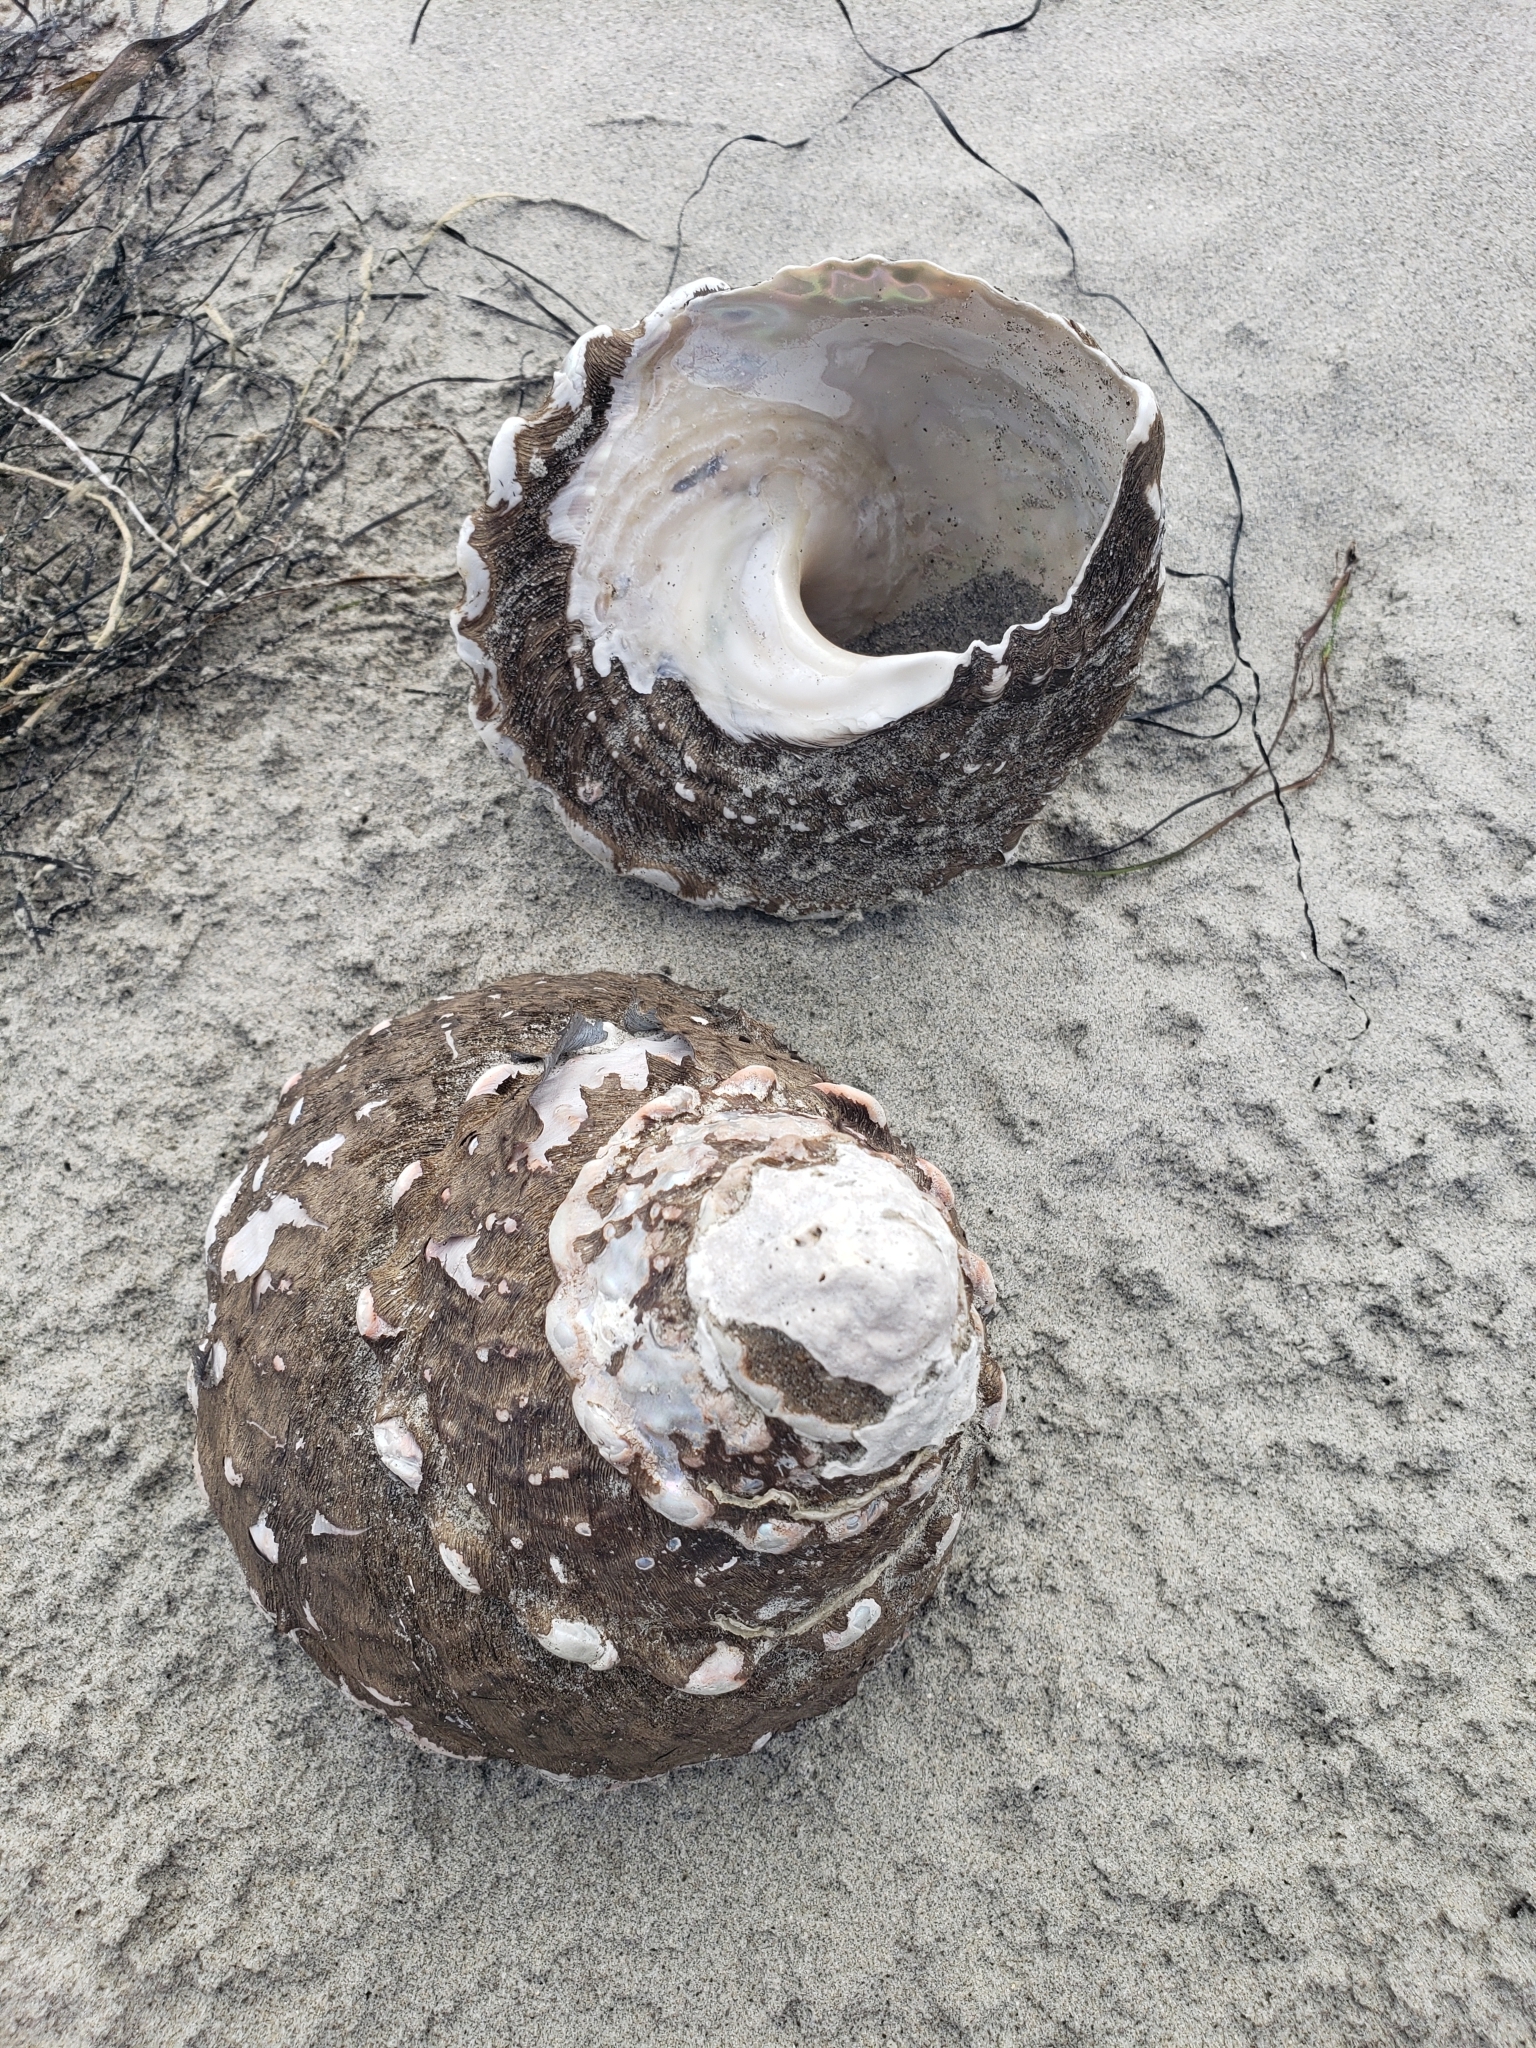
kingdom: Animalia
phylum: Mollusca
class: Gastropoda
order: Trochida
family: Turbinidae
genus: Megastraea
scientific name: Megastraea undosa
